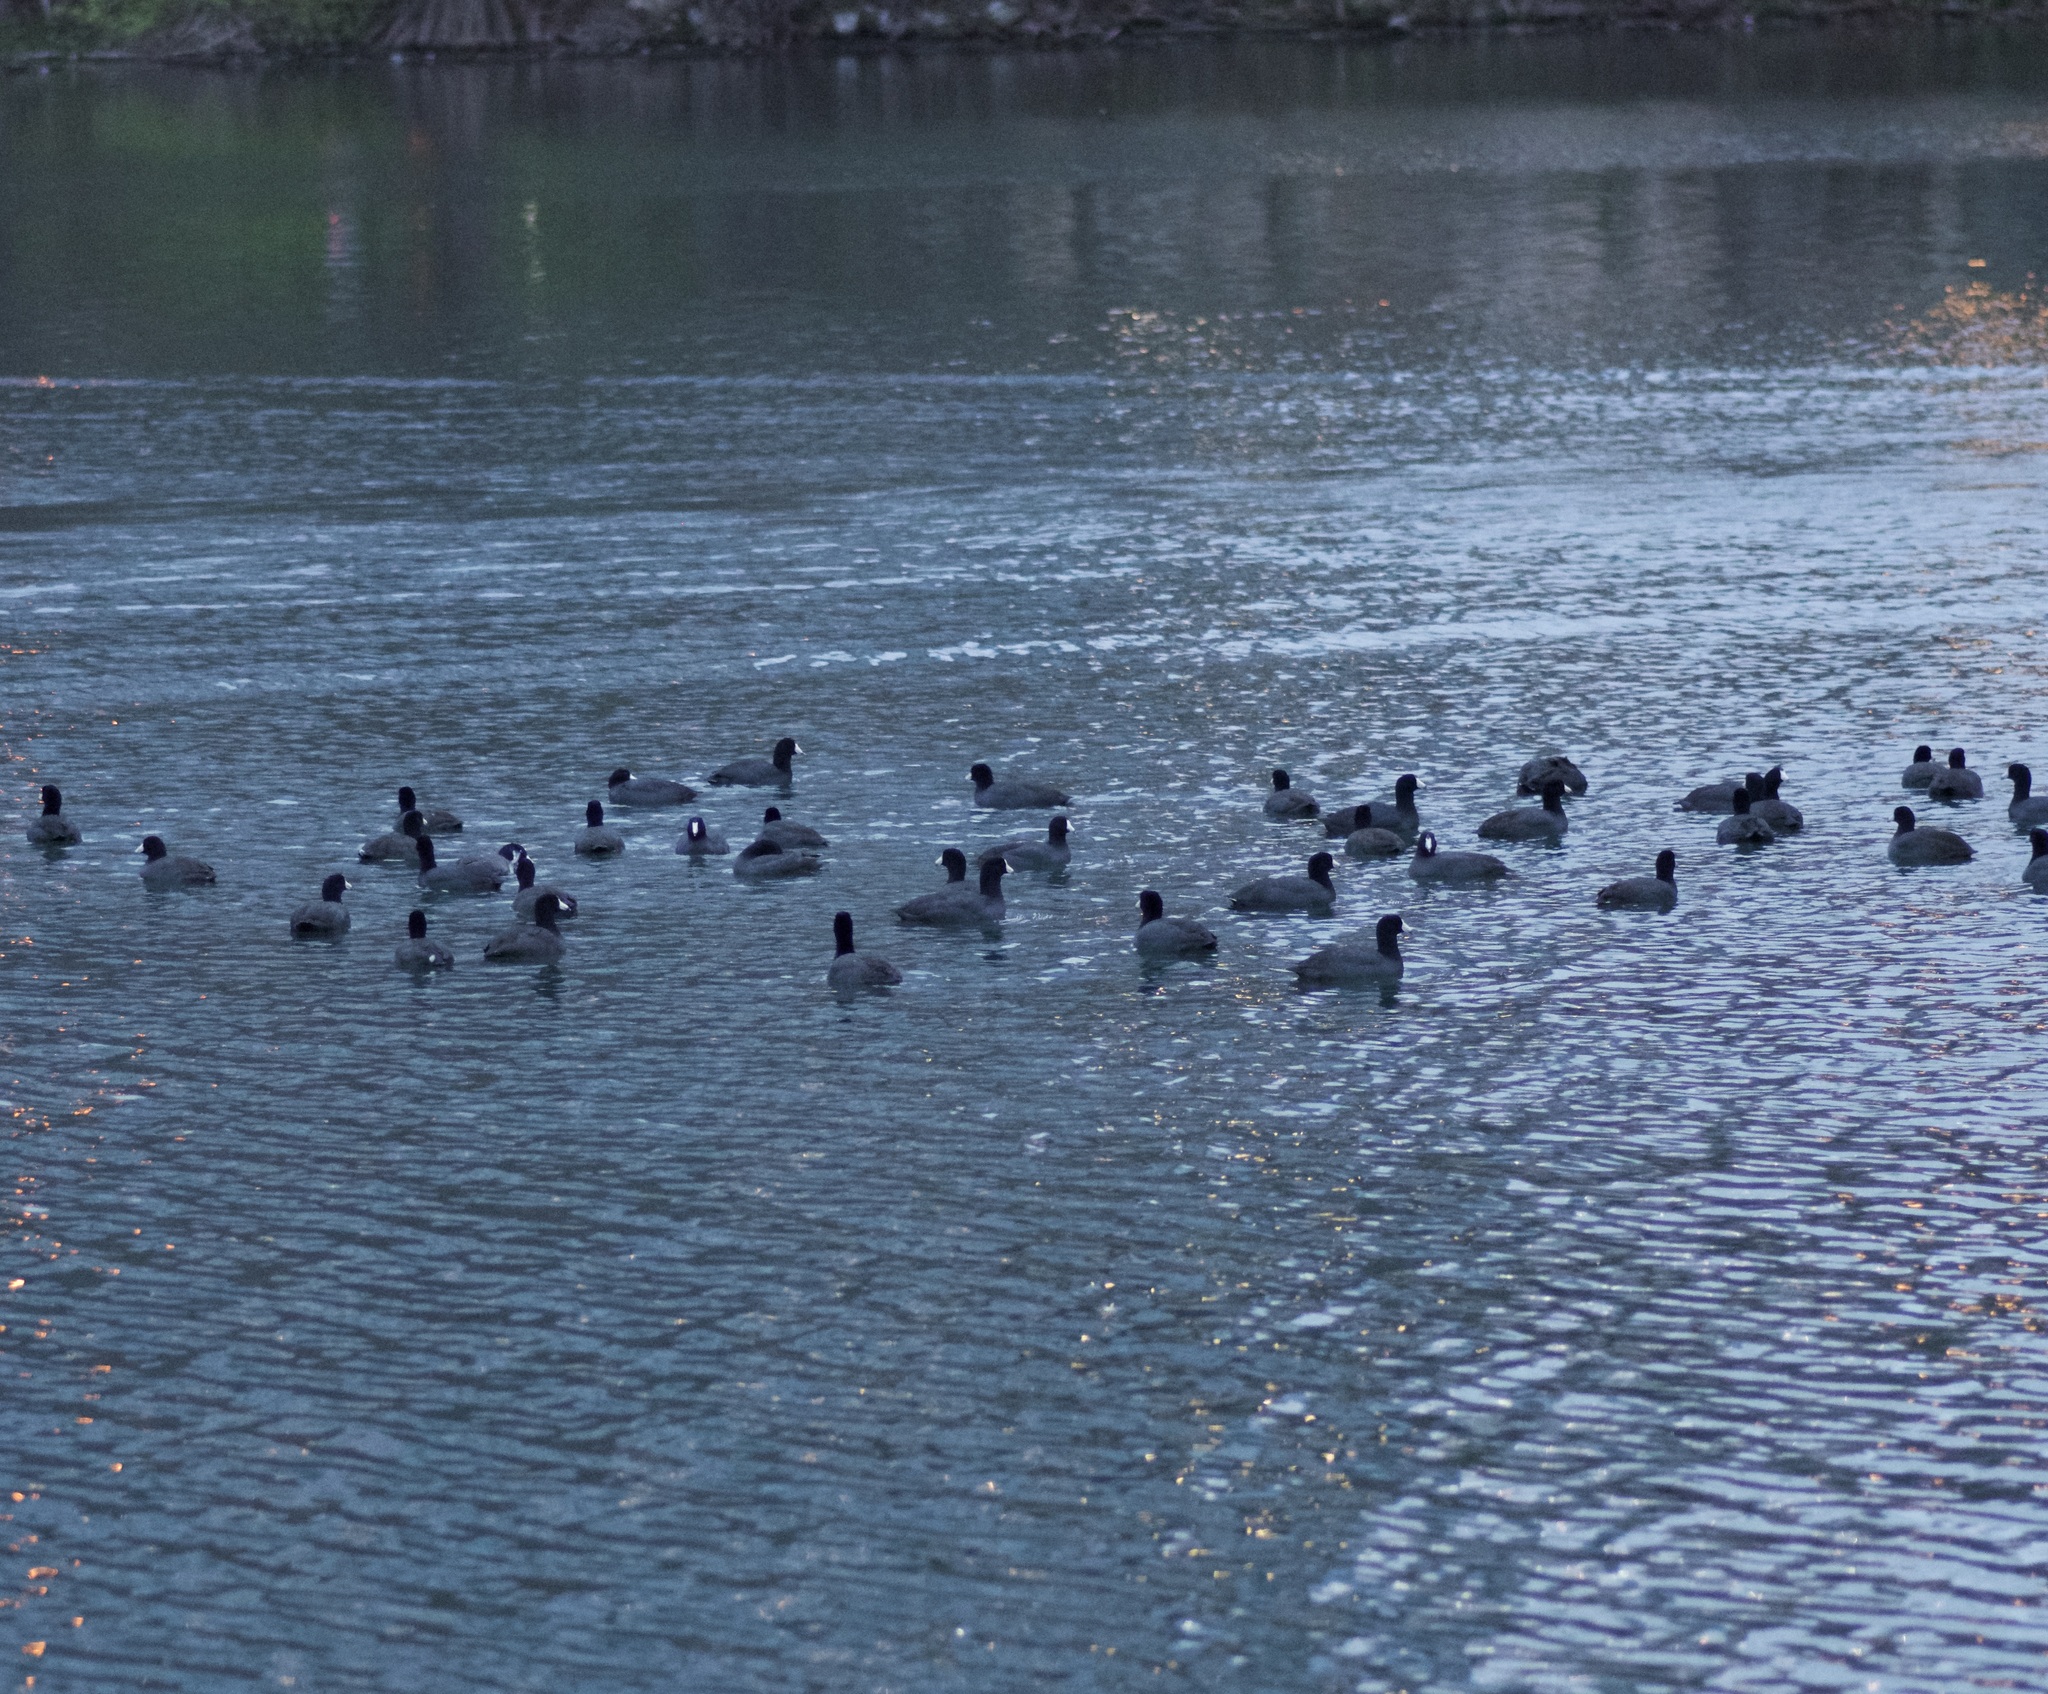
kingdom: Animalia
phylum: Chordata
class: Aves
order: Gruiformes
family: Rallidae
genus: Fulica
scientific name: Fulica americana
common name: American coot
